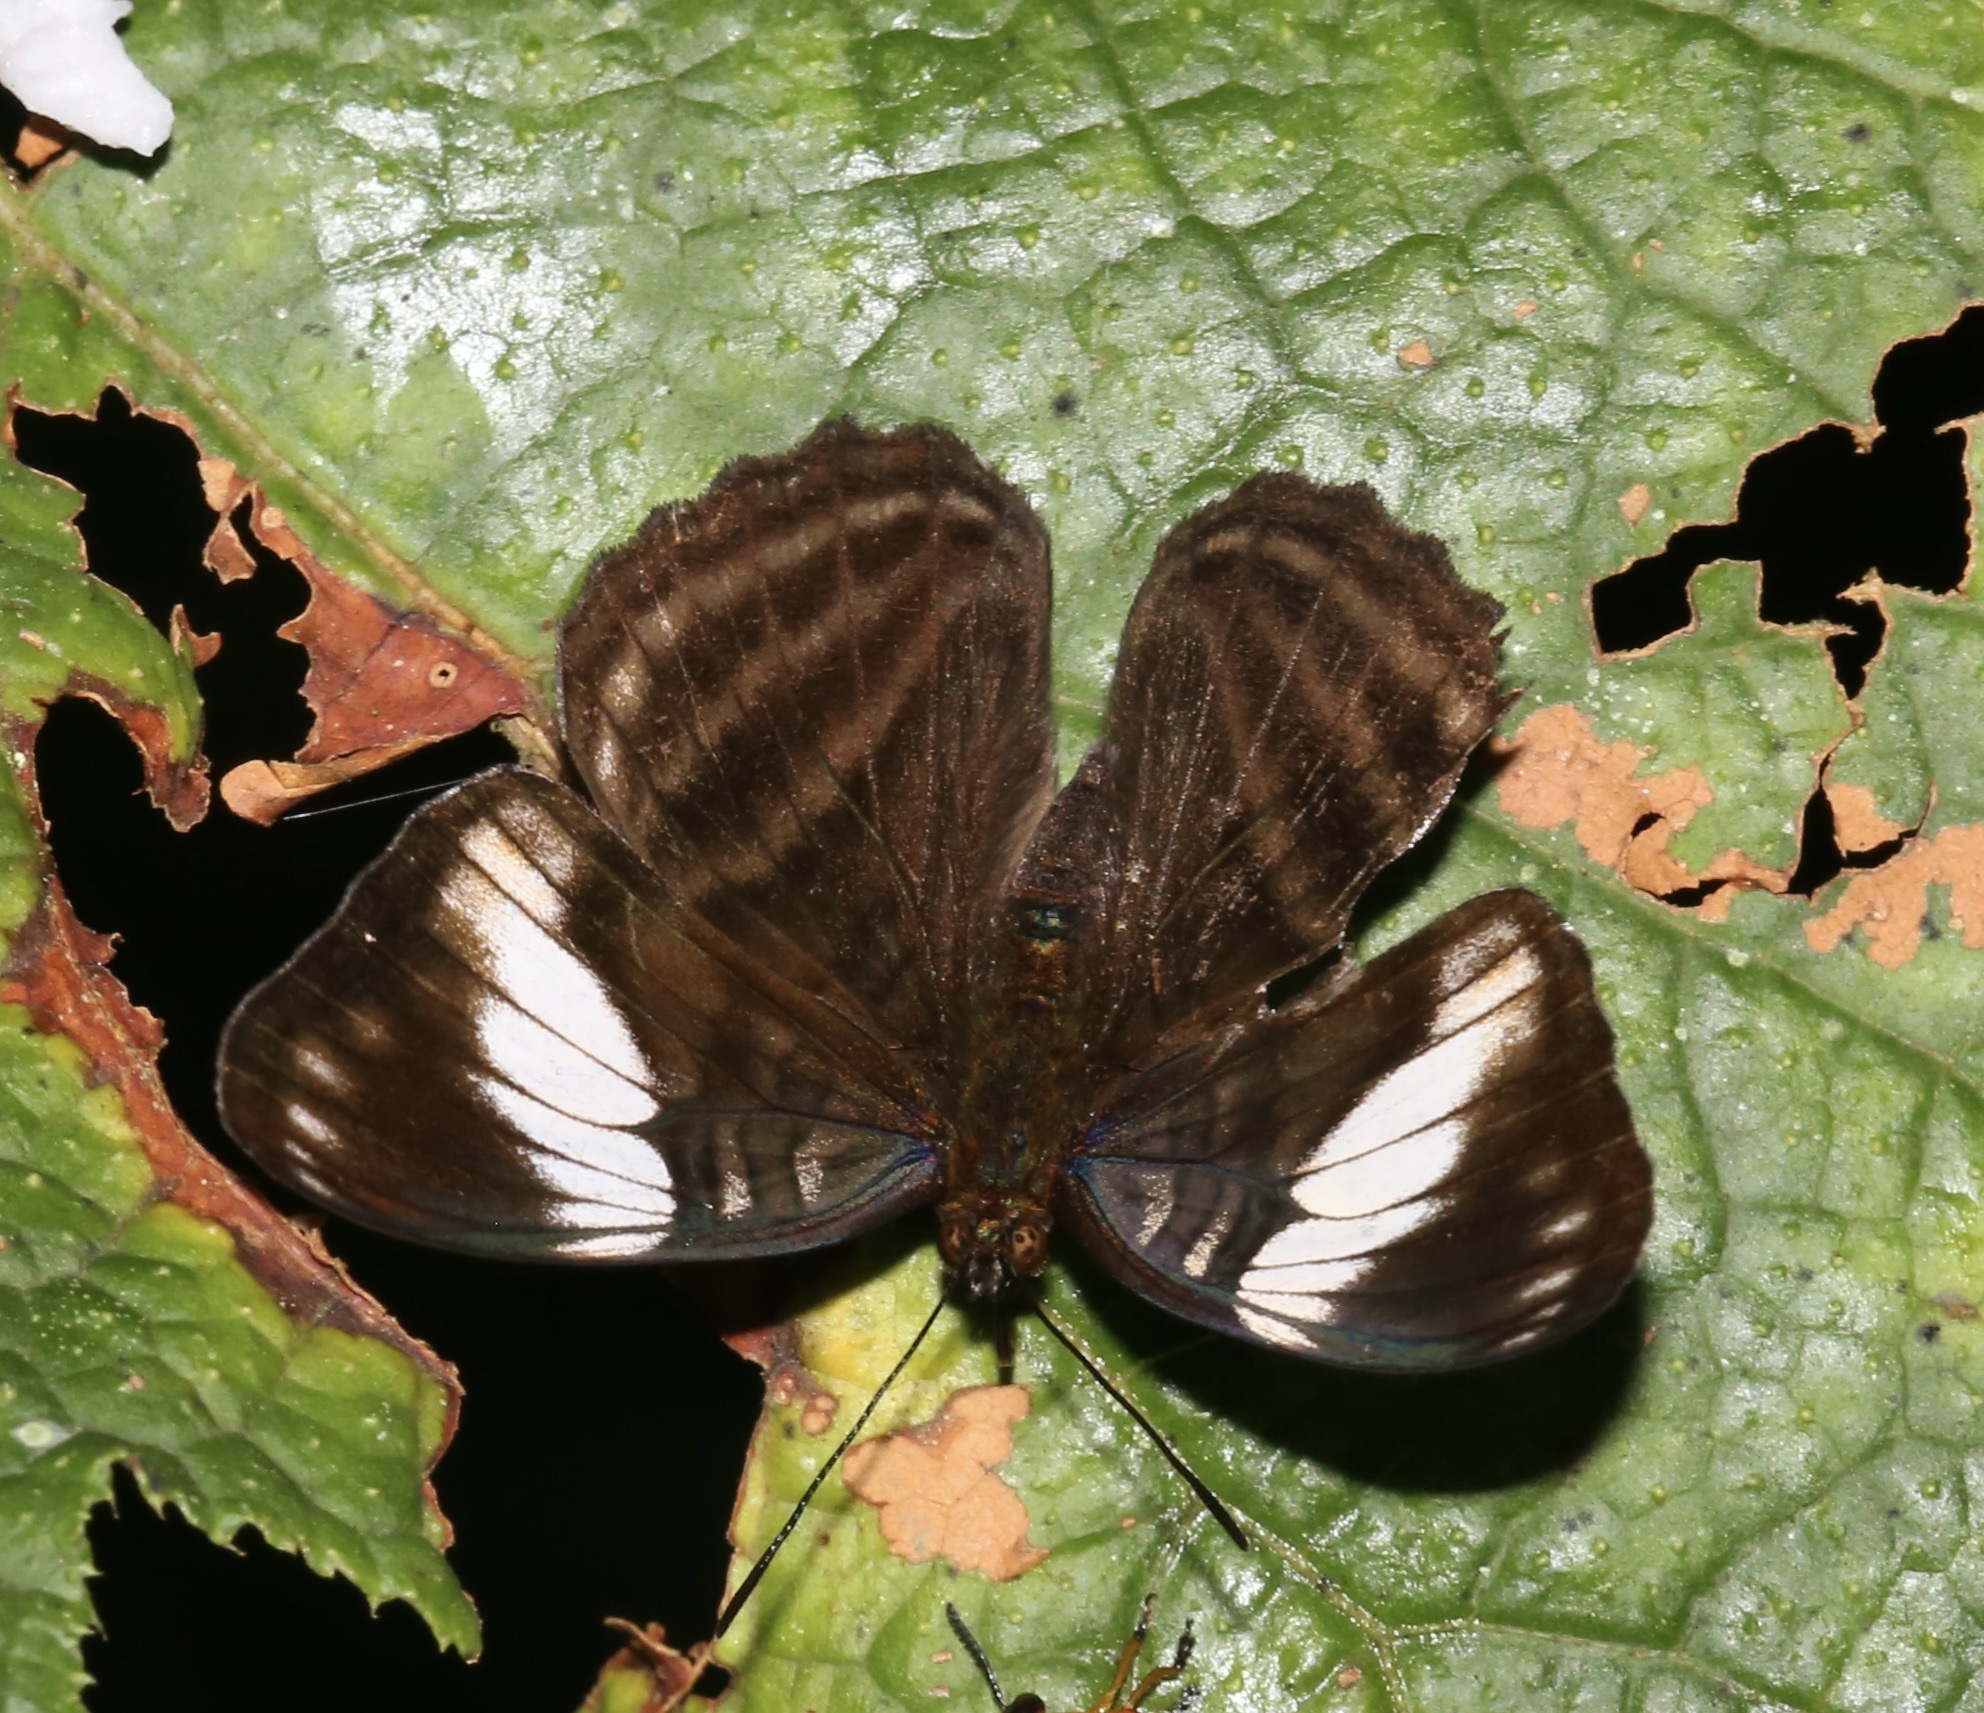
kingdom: Animalia
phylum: Arthropoda
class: Insecta
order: Lepidoptera
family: Nymphalidae
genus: Limenitis
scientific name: Limenitis ethelda
